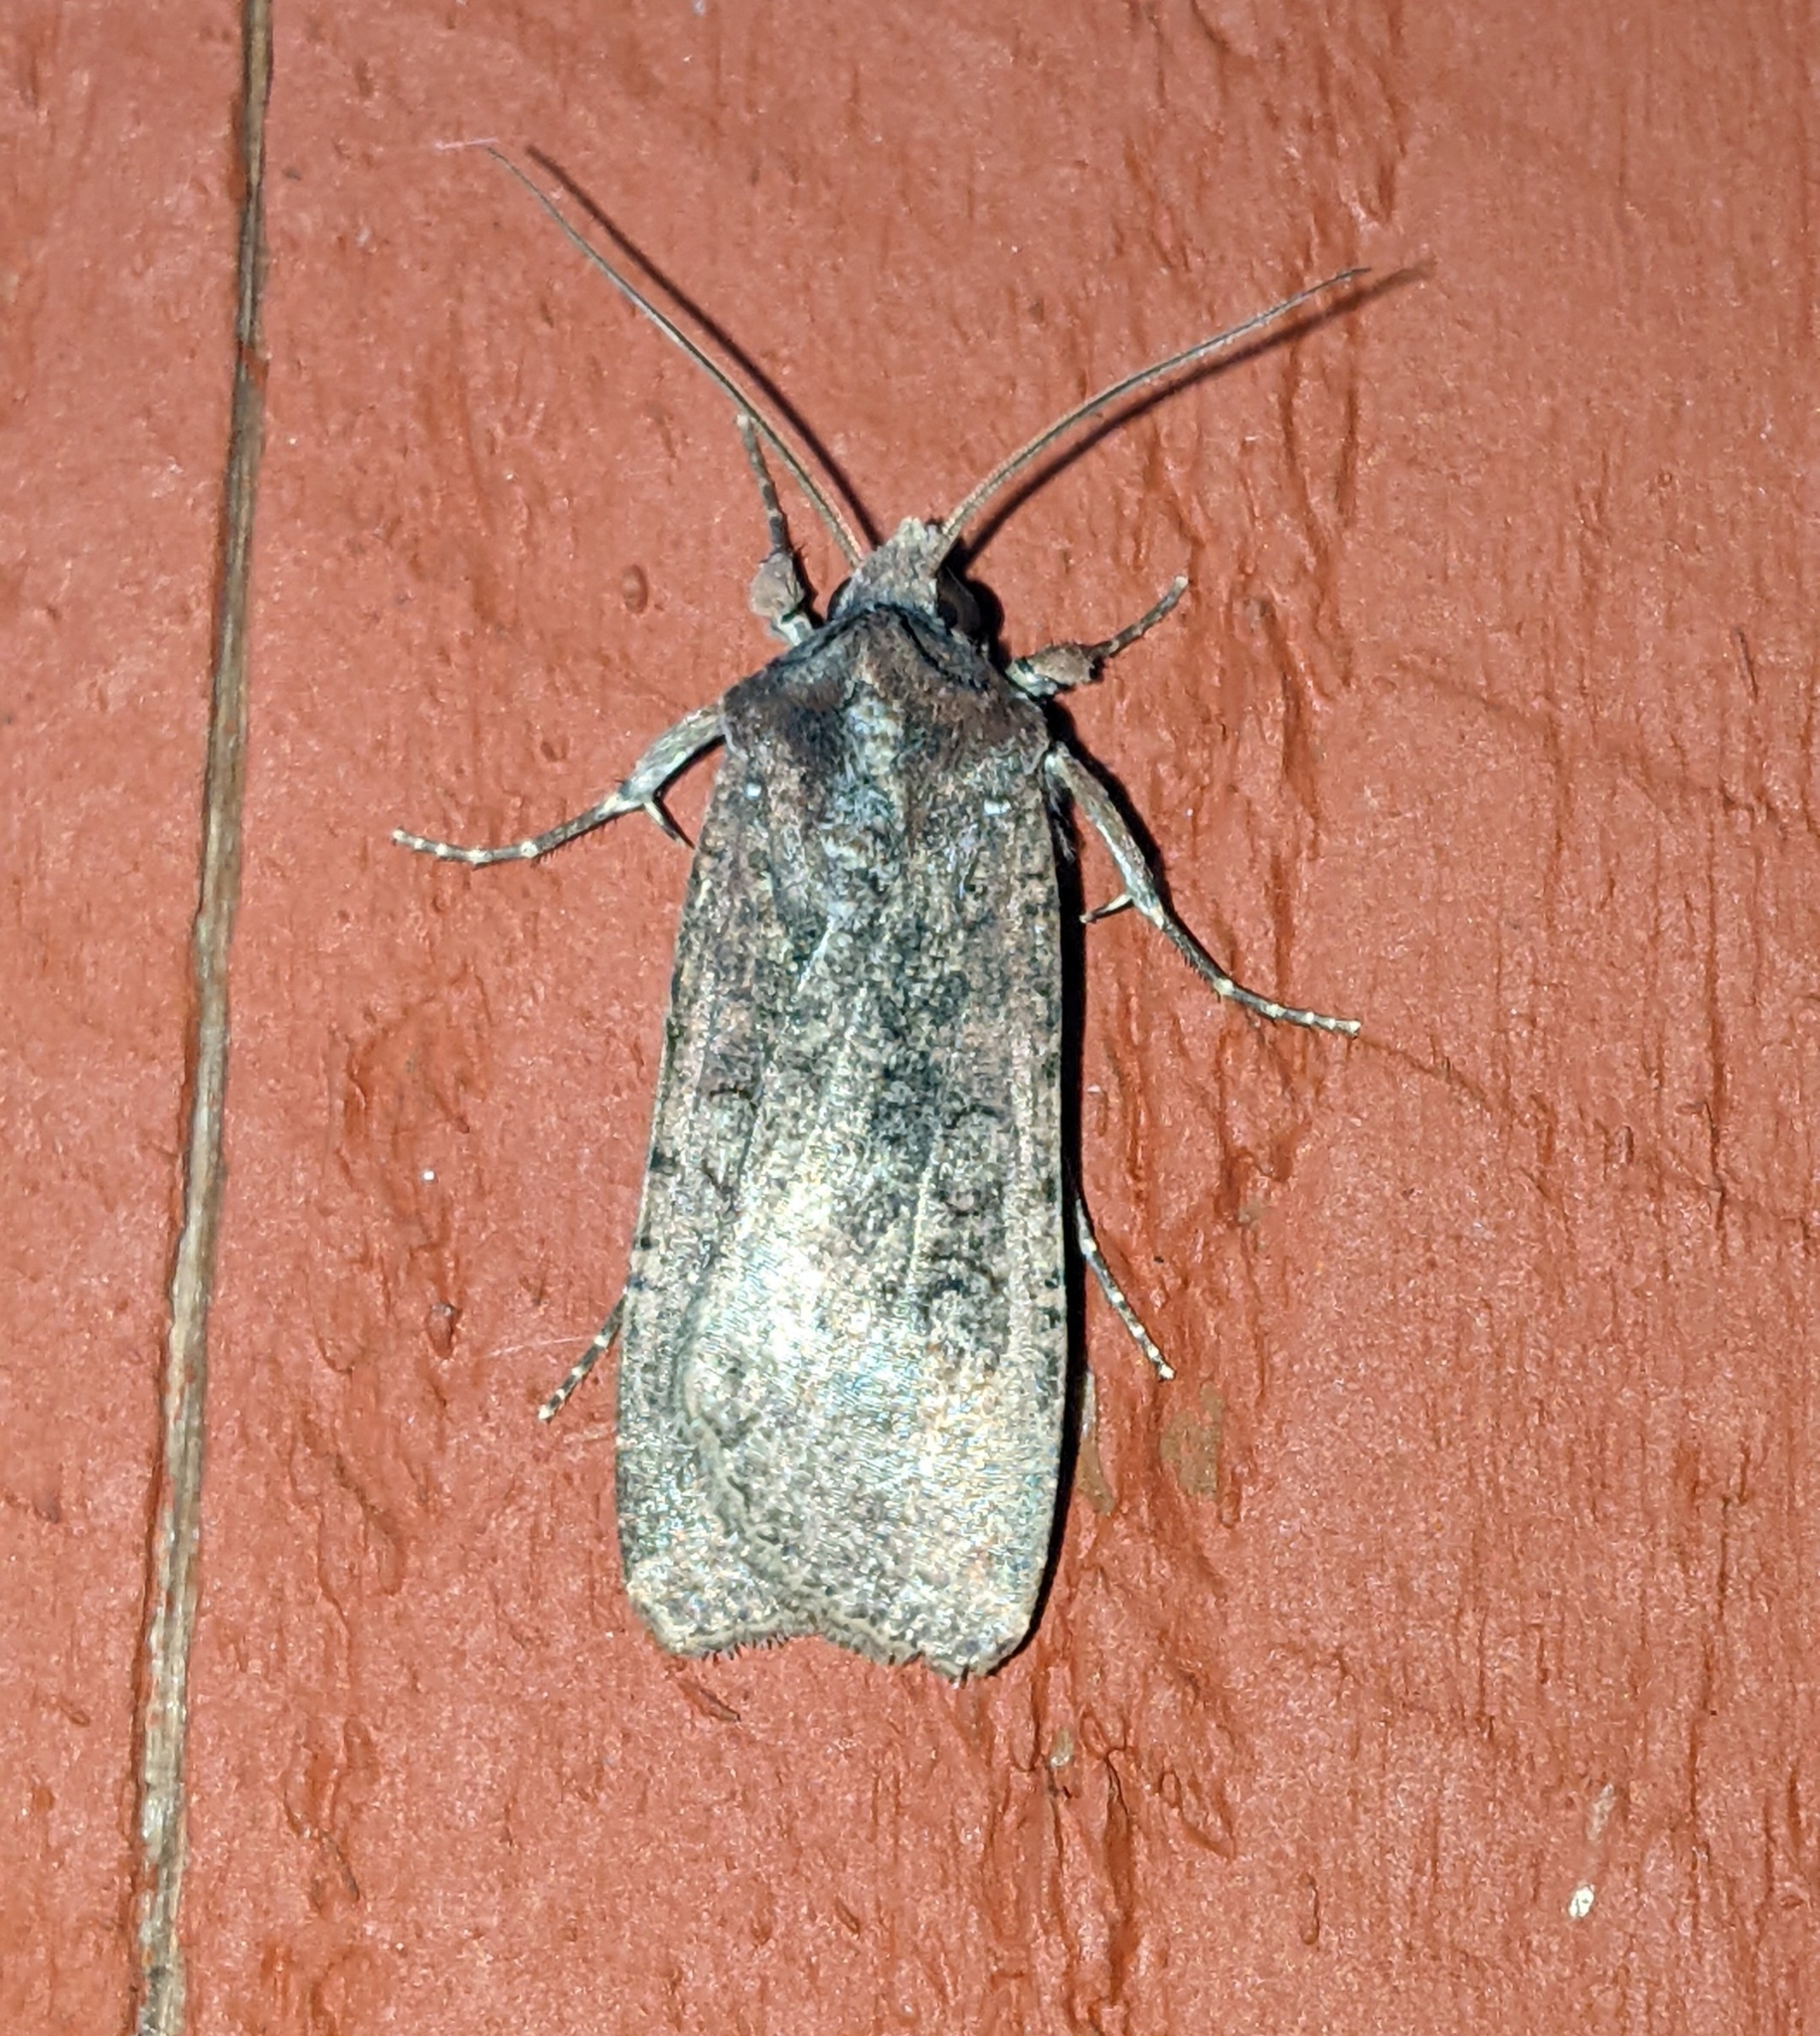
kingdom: Animalia
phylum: Arthropoda
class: Insecta
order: Lepidoptera
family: Noctuidae
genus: Peridroma
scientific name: Peridroma saucia
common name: Pearly underwing
